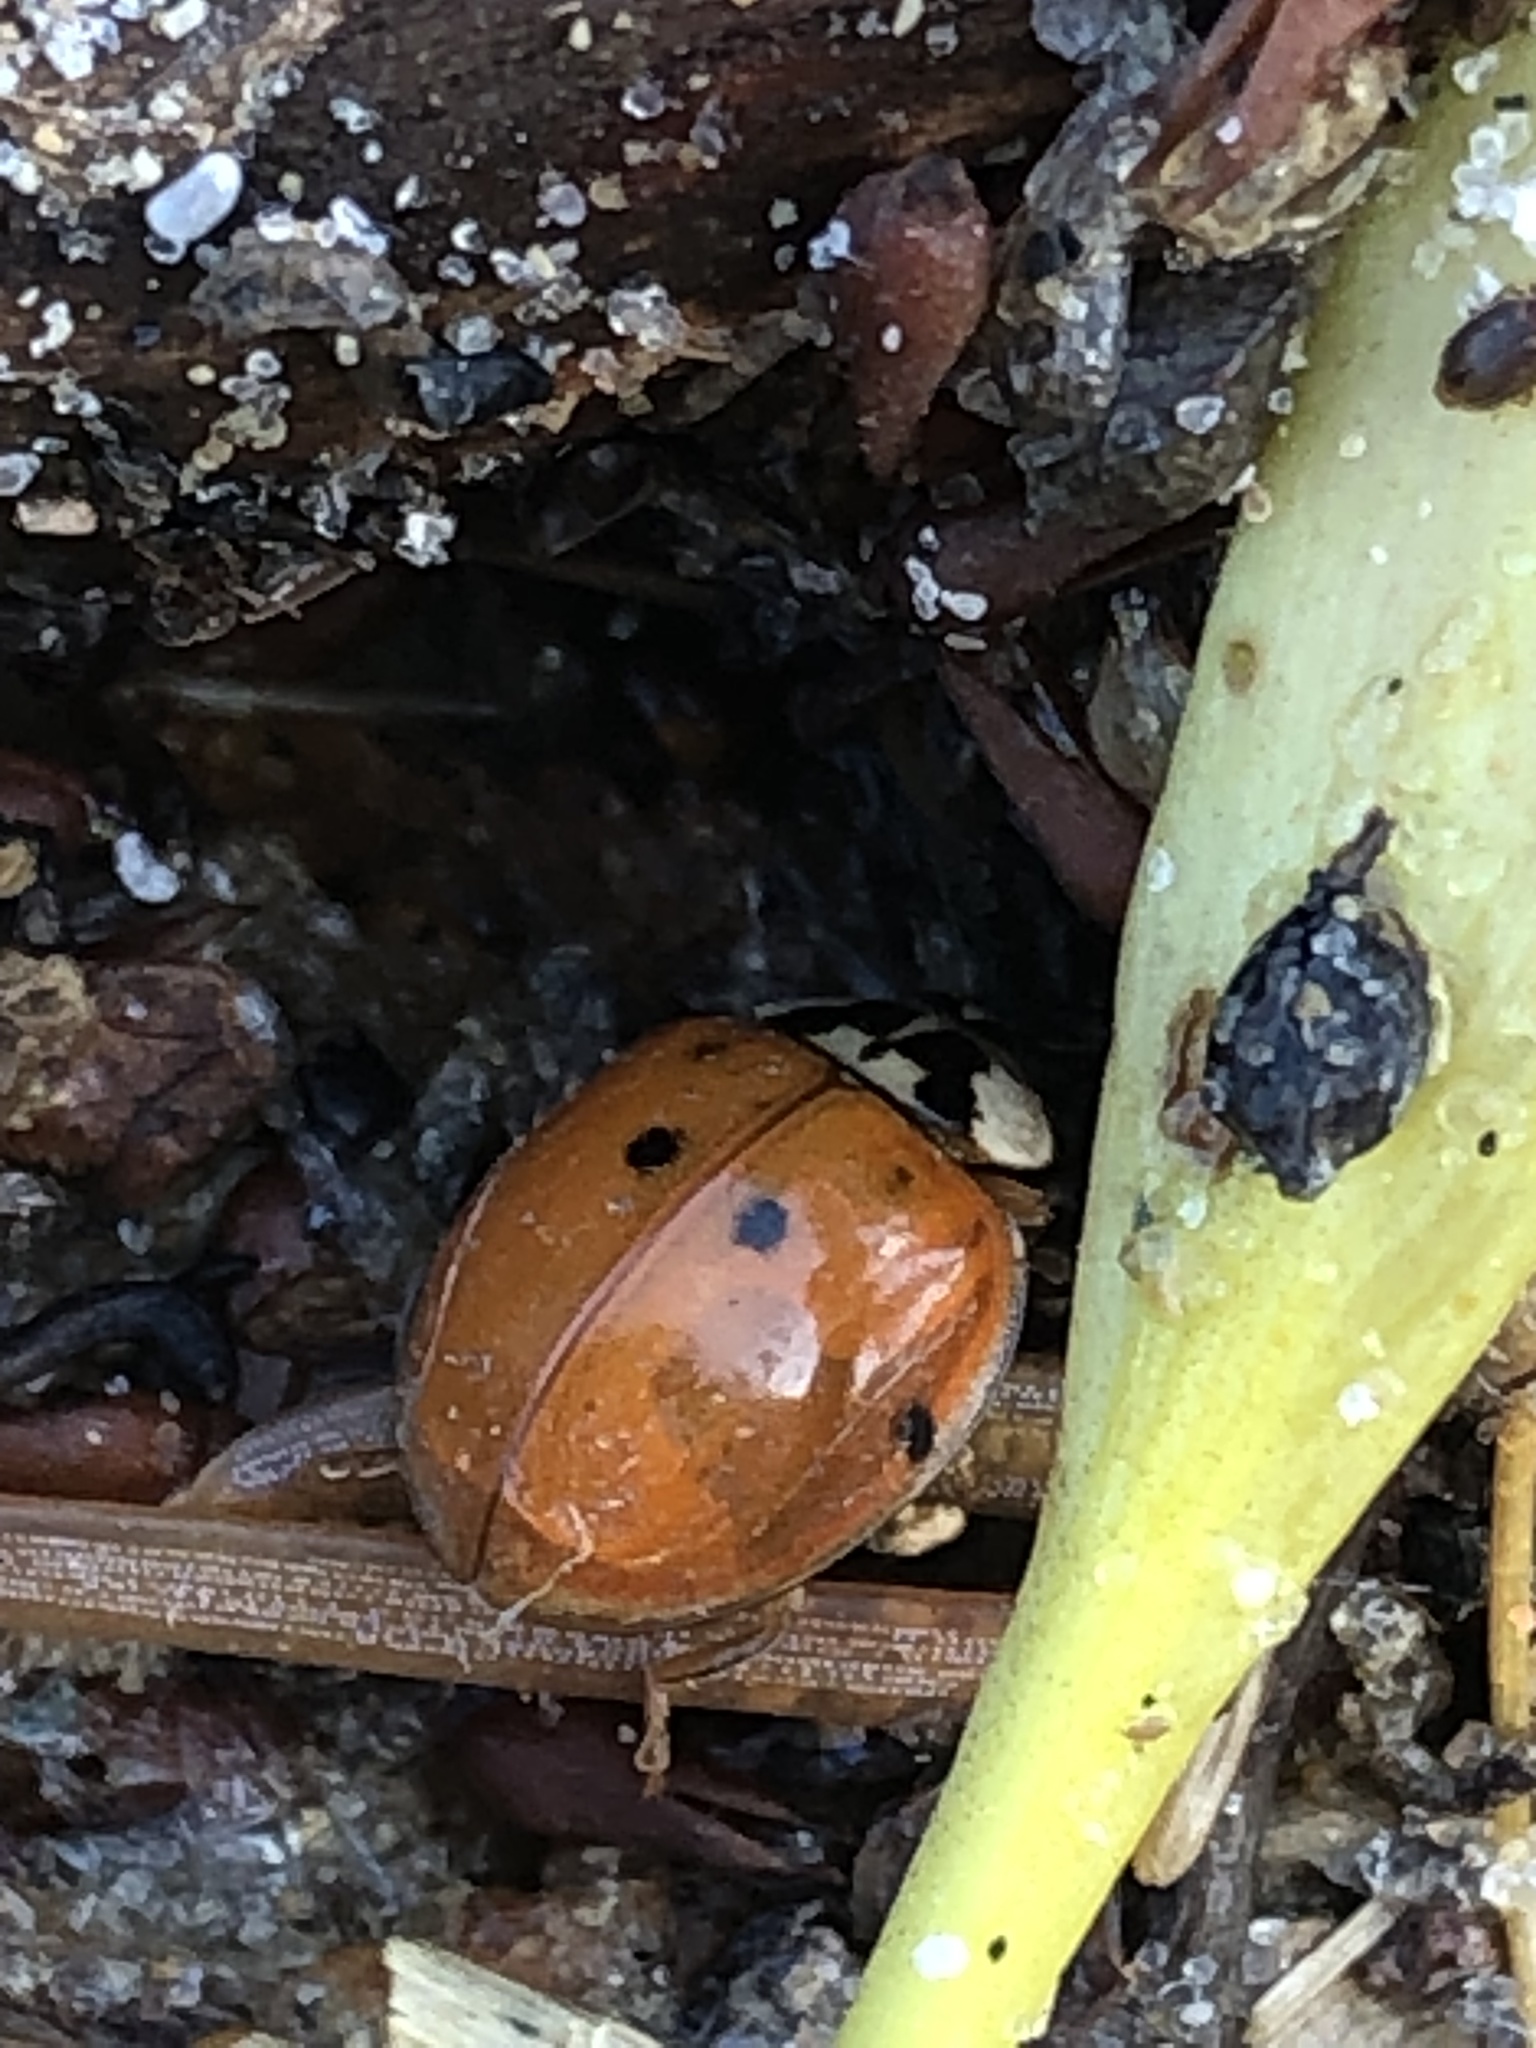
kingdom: Animalia
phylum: Arthropoda
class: Insecta
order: Coleoptera
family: Coccinellidae
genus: Harmonia
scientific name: Harmonia axyridis
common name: Harlequin ladybird
